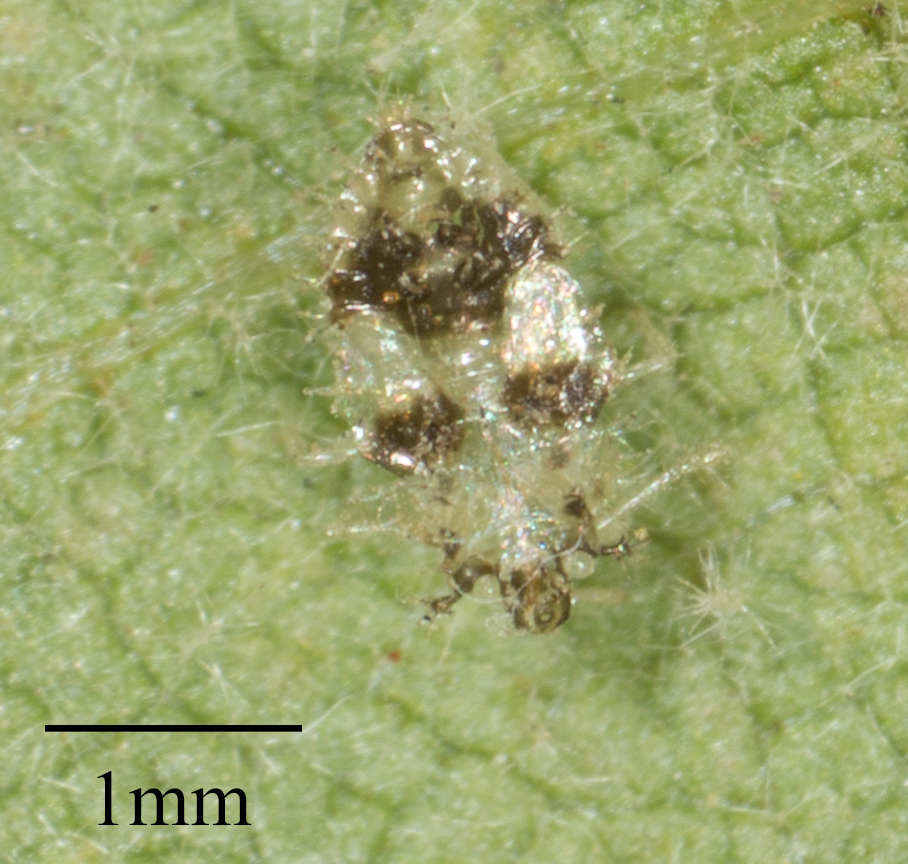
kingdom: Animalia
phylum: Arthropoda
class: Insecta
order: Hemiptera
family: Tingidae
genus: Corythucha
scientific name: Corythucha confraterna
